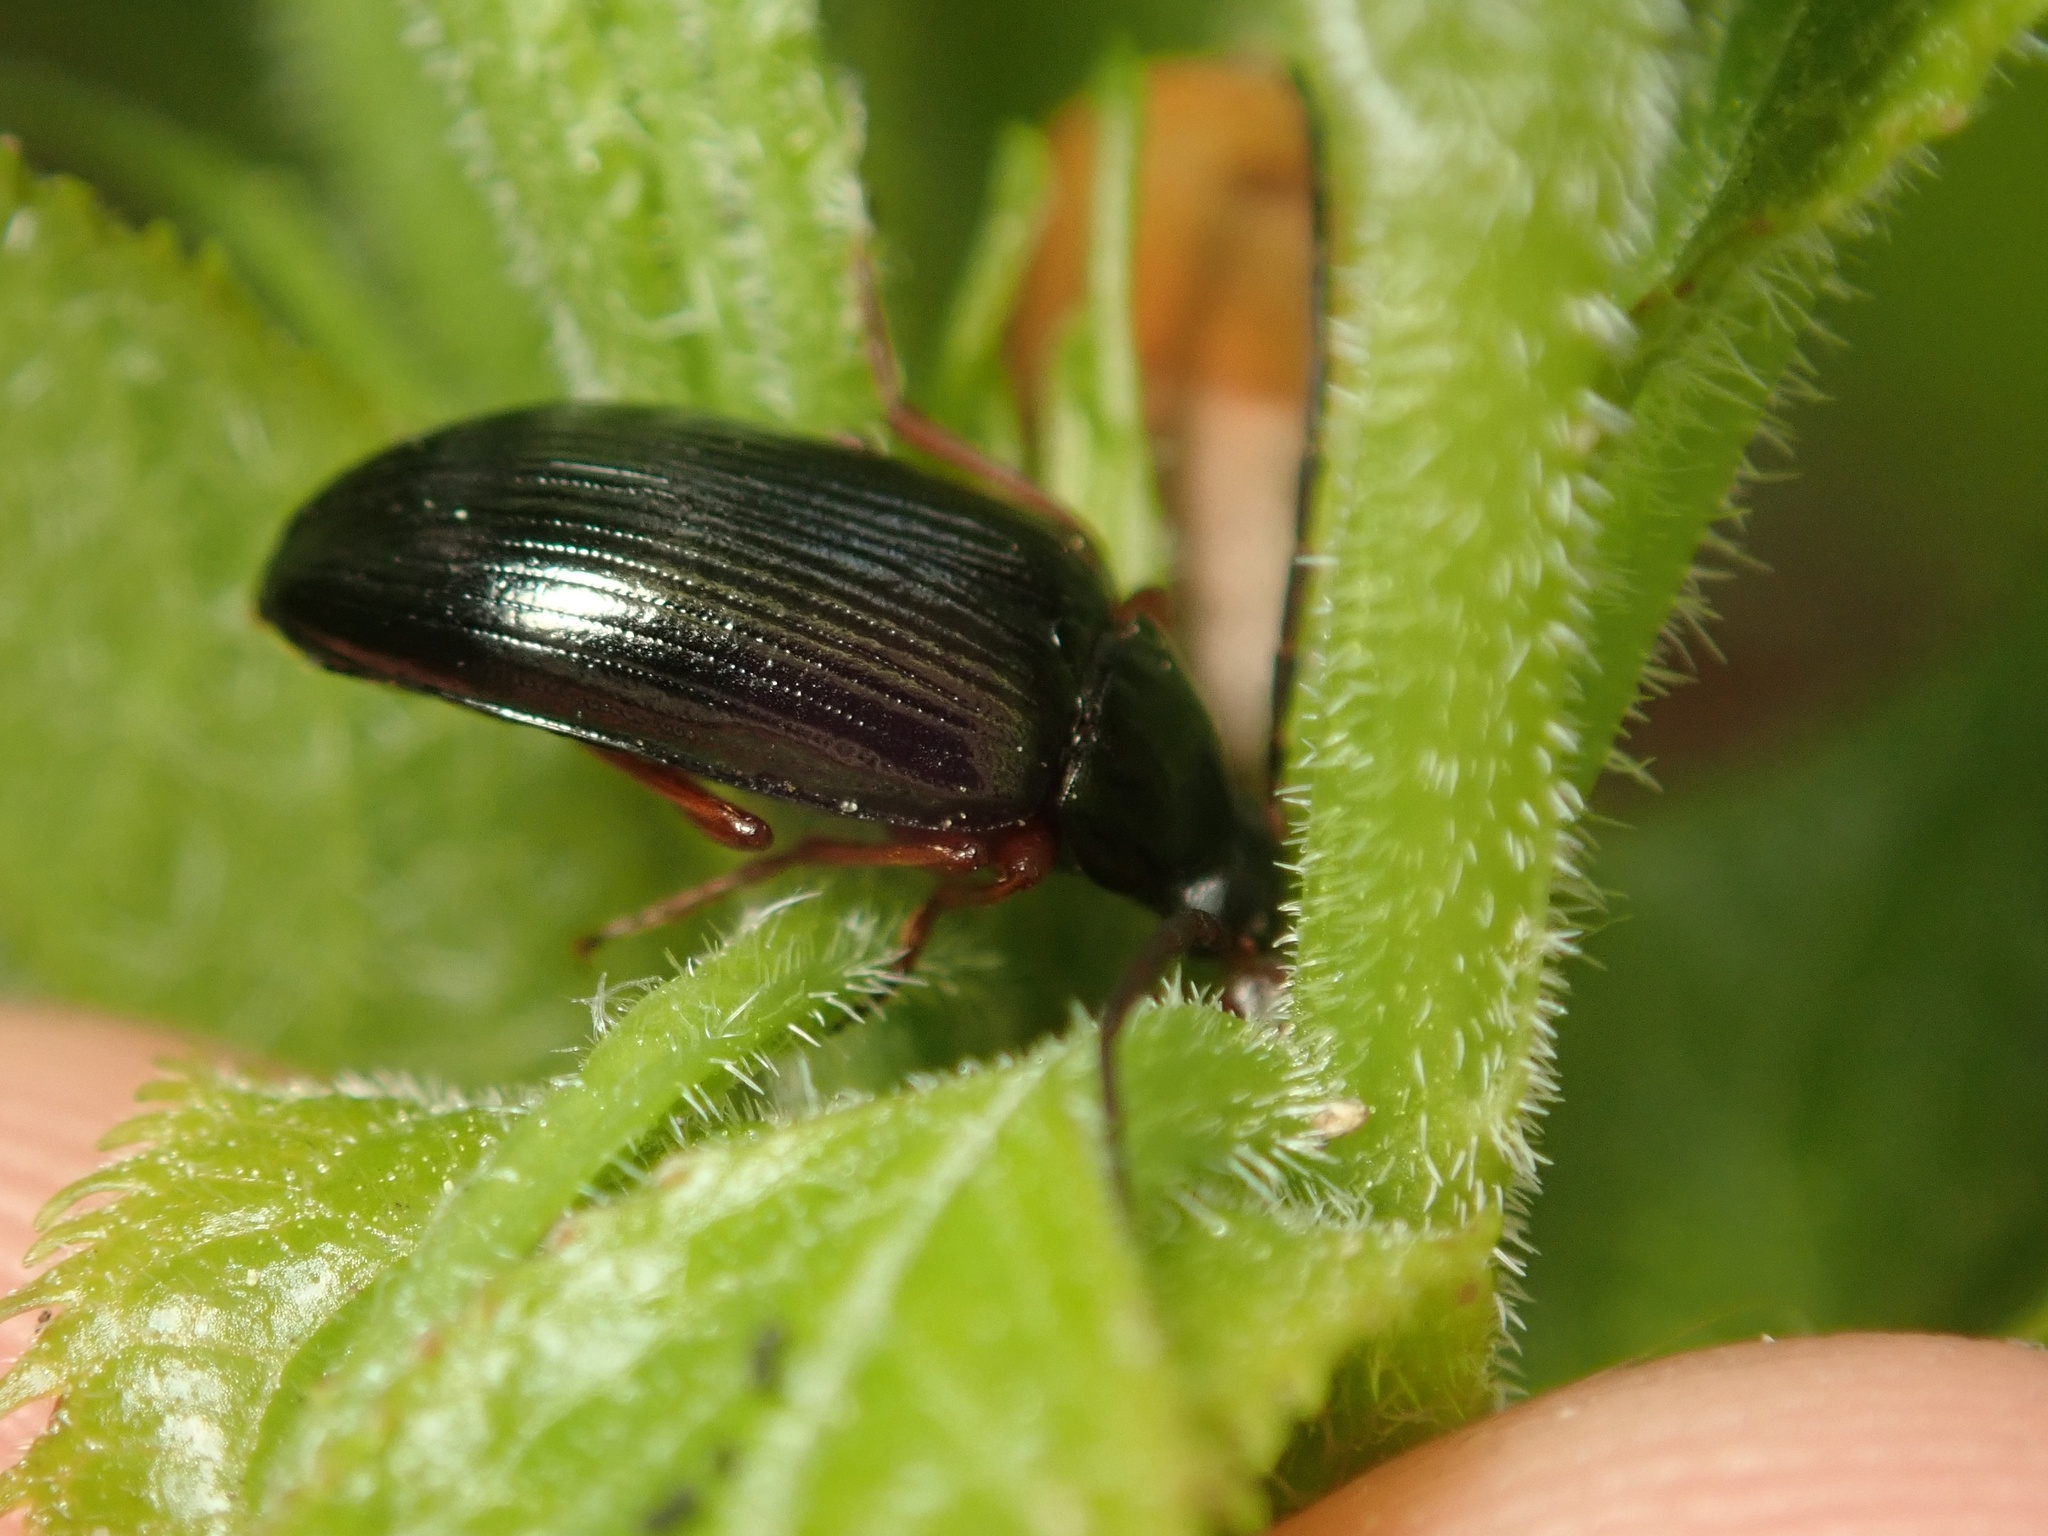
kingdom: Animalia
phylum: Arthropoda
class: Insecta
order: Coleoptera
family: Tenebrionidae
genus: Gonodera
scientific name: Gonodera luperus
